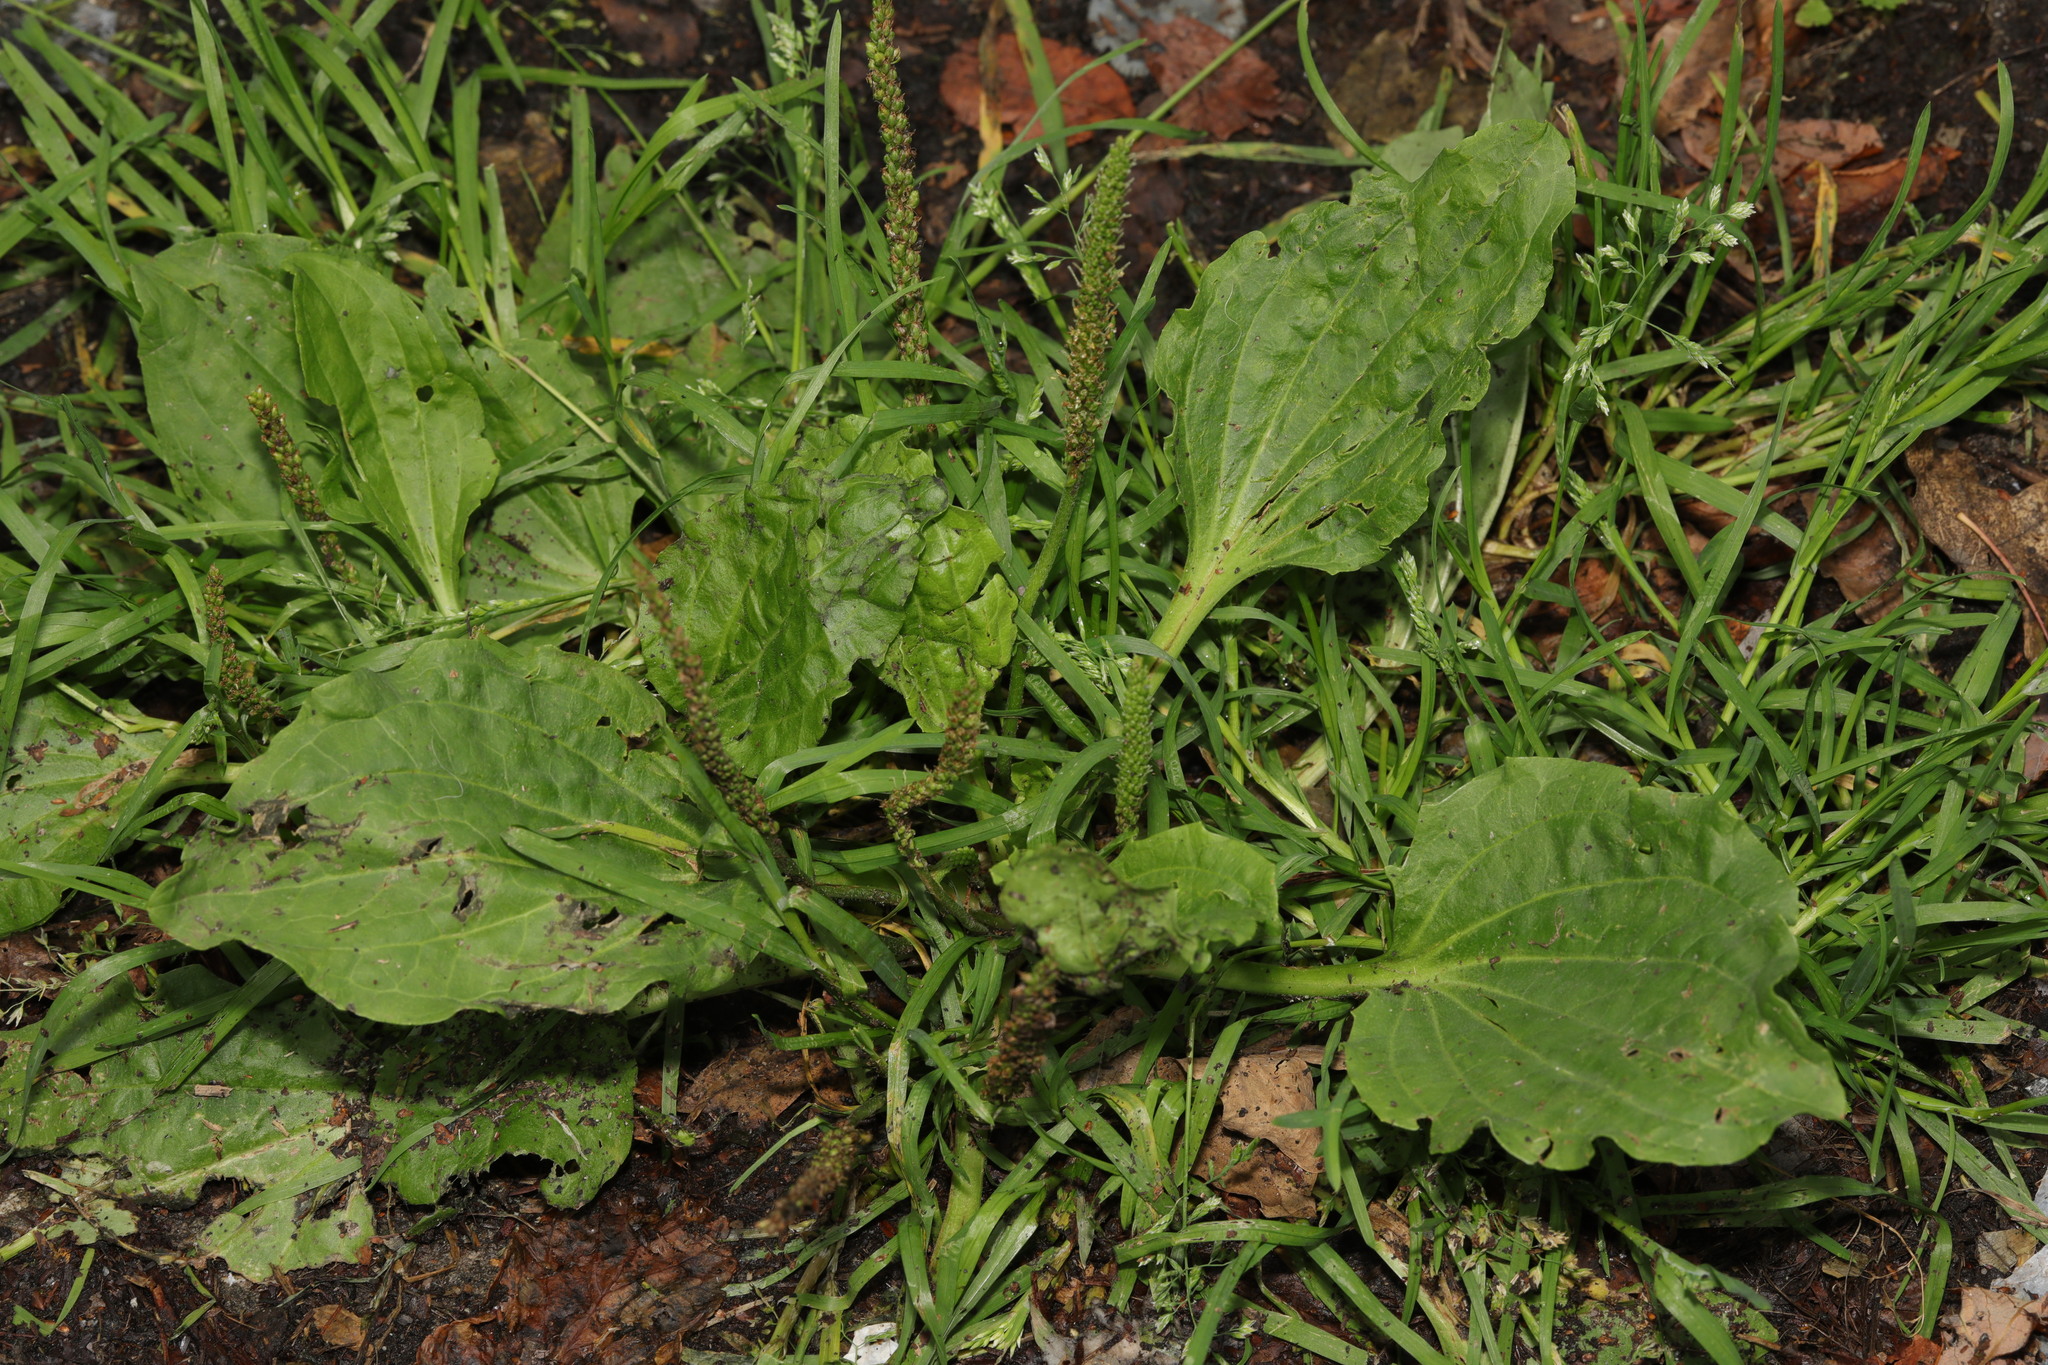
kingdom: Plantae
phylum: Tracheophyta
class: Magnoliopsida
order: Lamiales
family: Plantaginaceae
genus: Plantago
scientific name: Plantago major
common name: Common plantain
